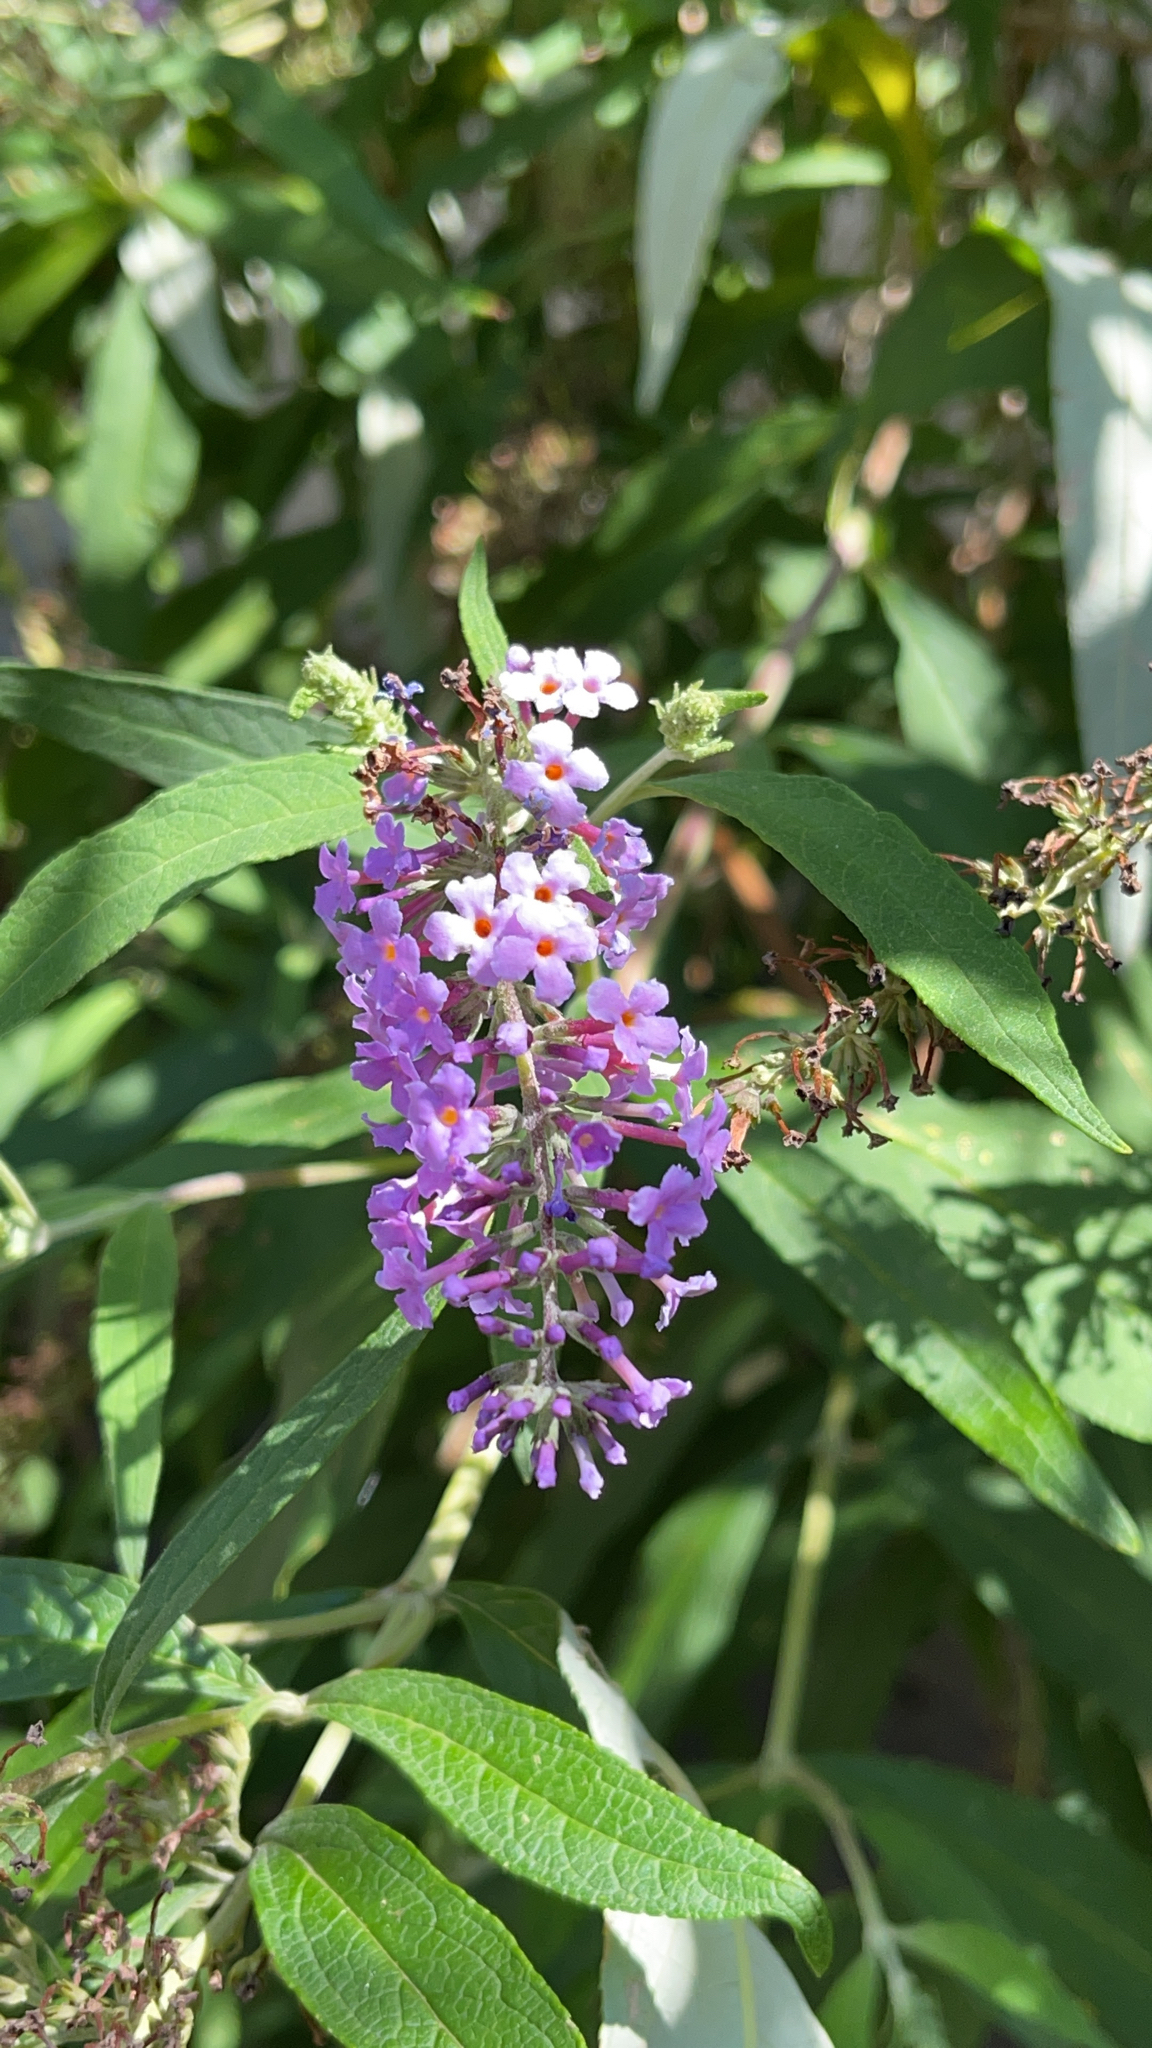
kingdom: Plantae
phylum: Tracheophyta
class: Magnoliopsida
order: Lamiales
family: Scrophulariaceae
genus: Buddleja
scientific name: Buddleja davidii
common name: Butterfly-bush
